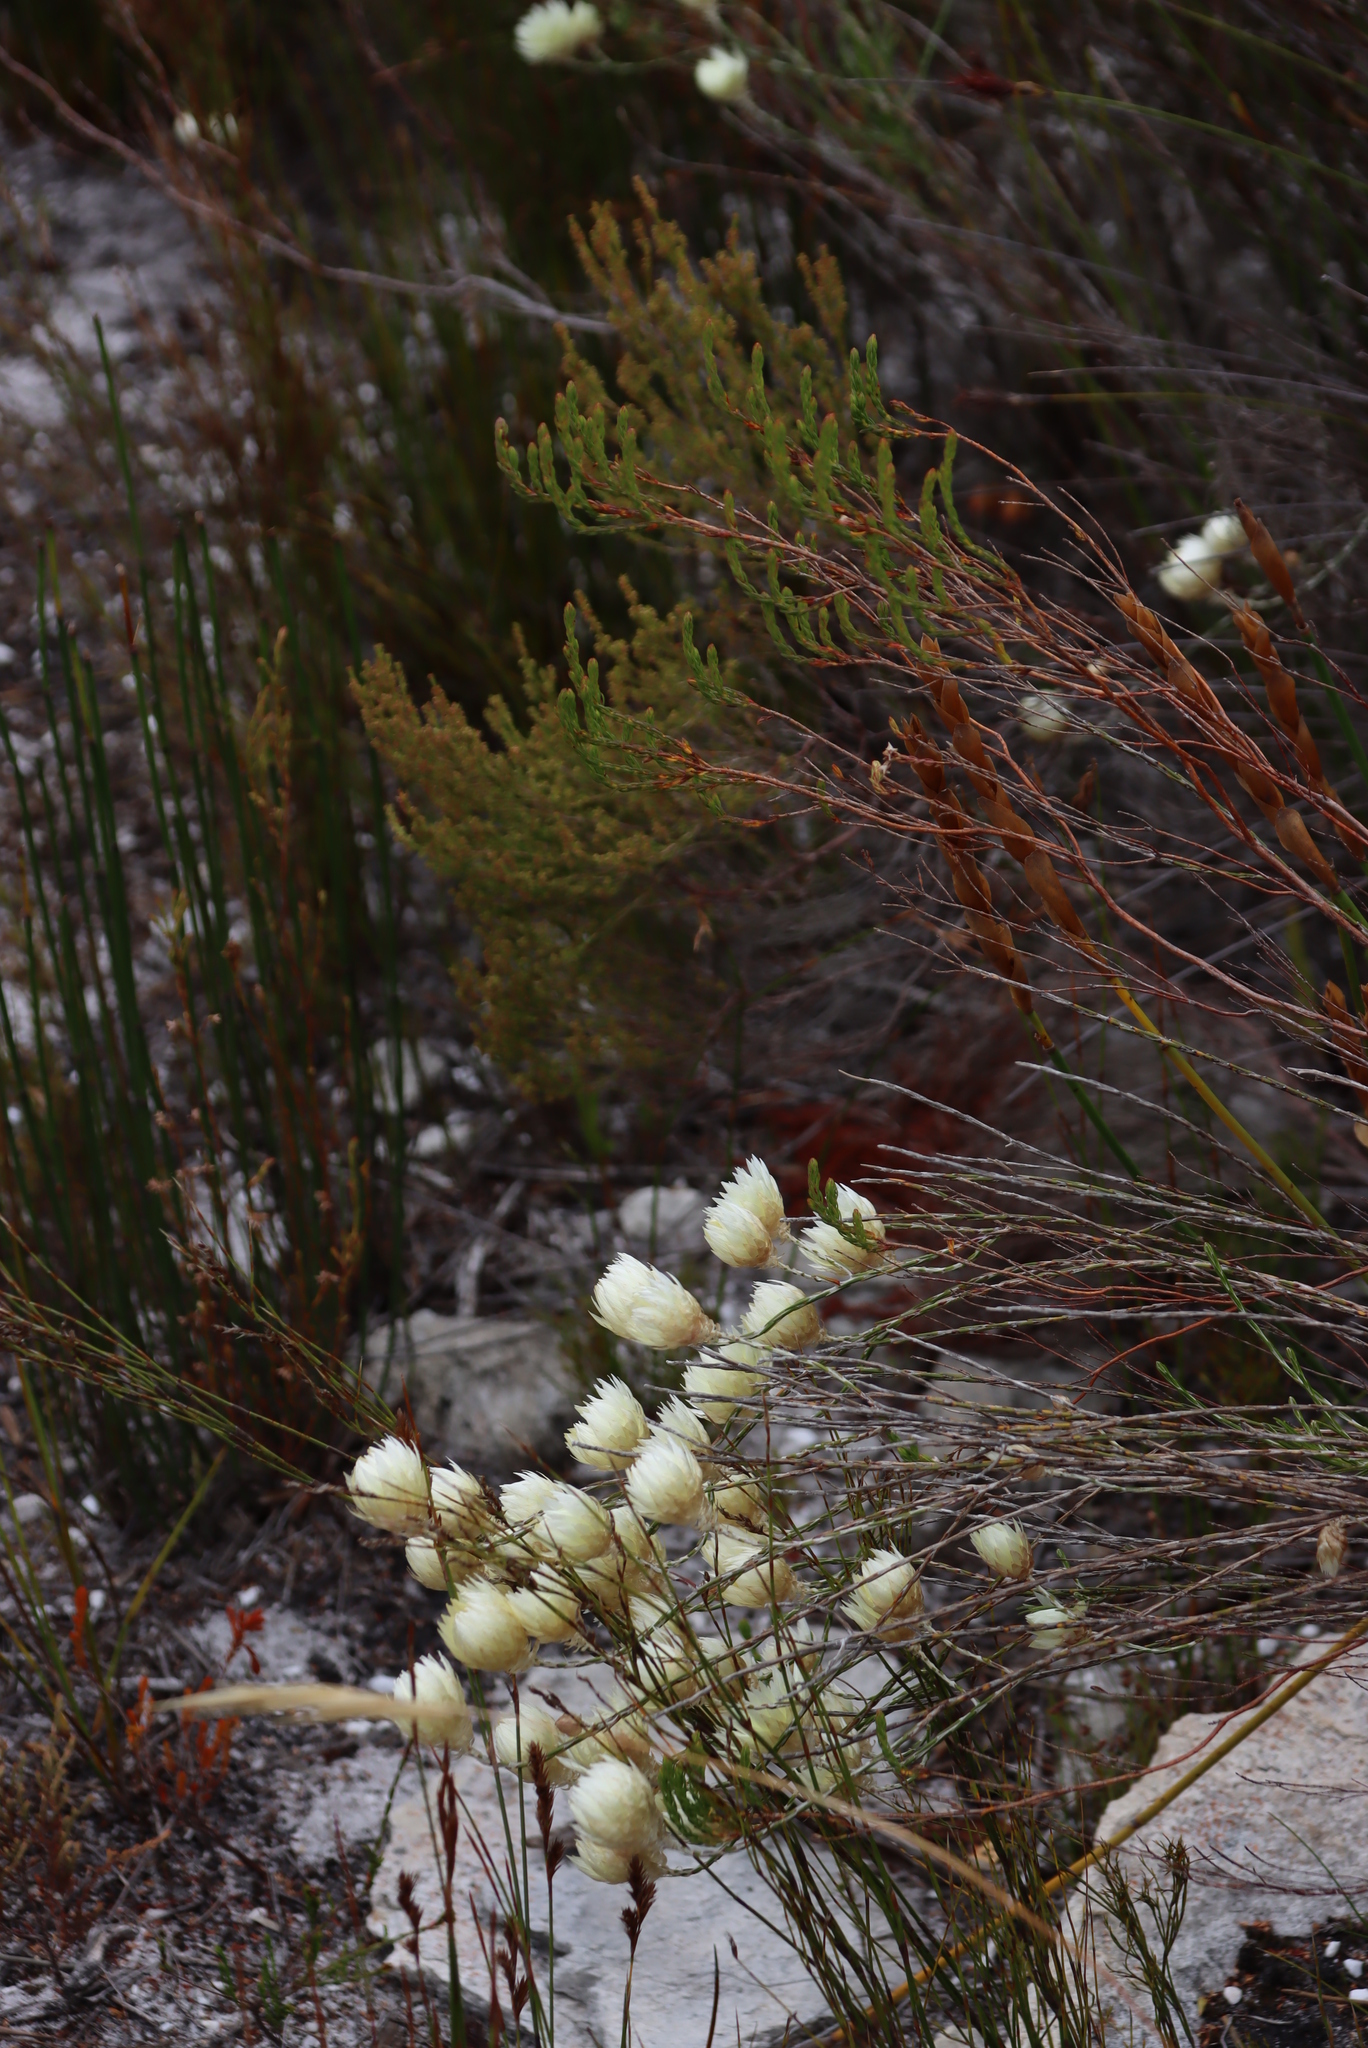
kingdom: Plantae
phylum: Tracheophyta
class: Magnoliopsida
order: Asterales
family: Asteraceae
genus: Edmondia
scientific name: Edmondia sesamoides
